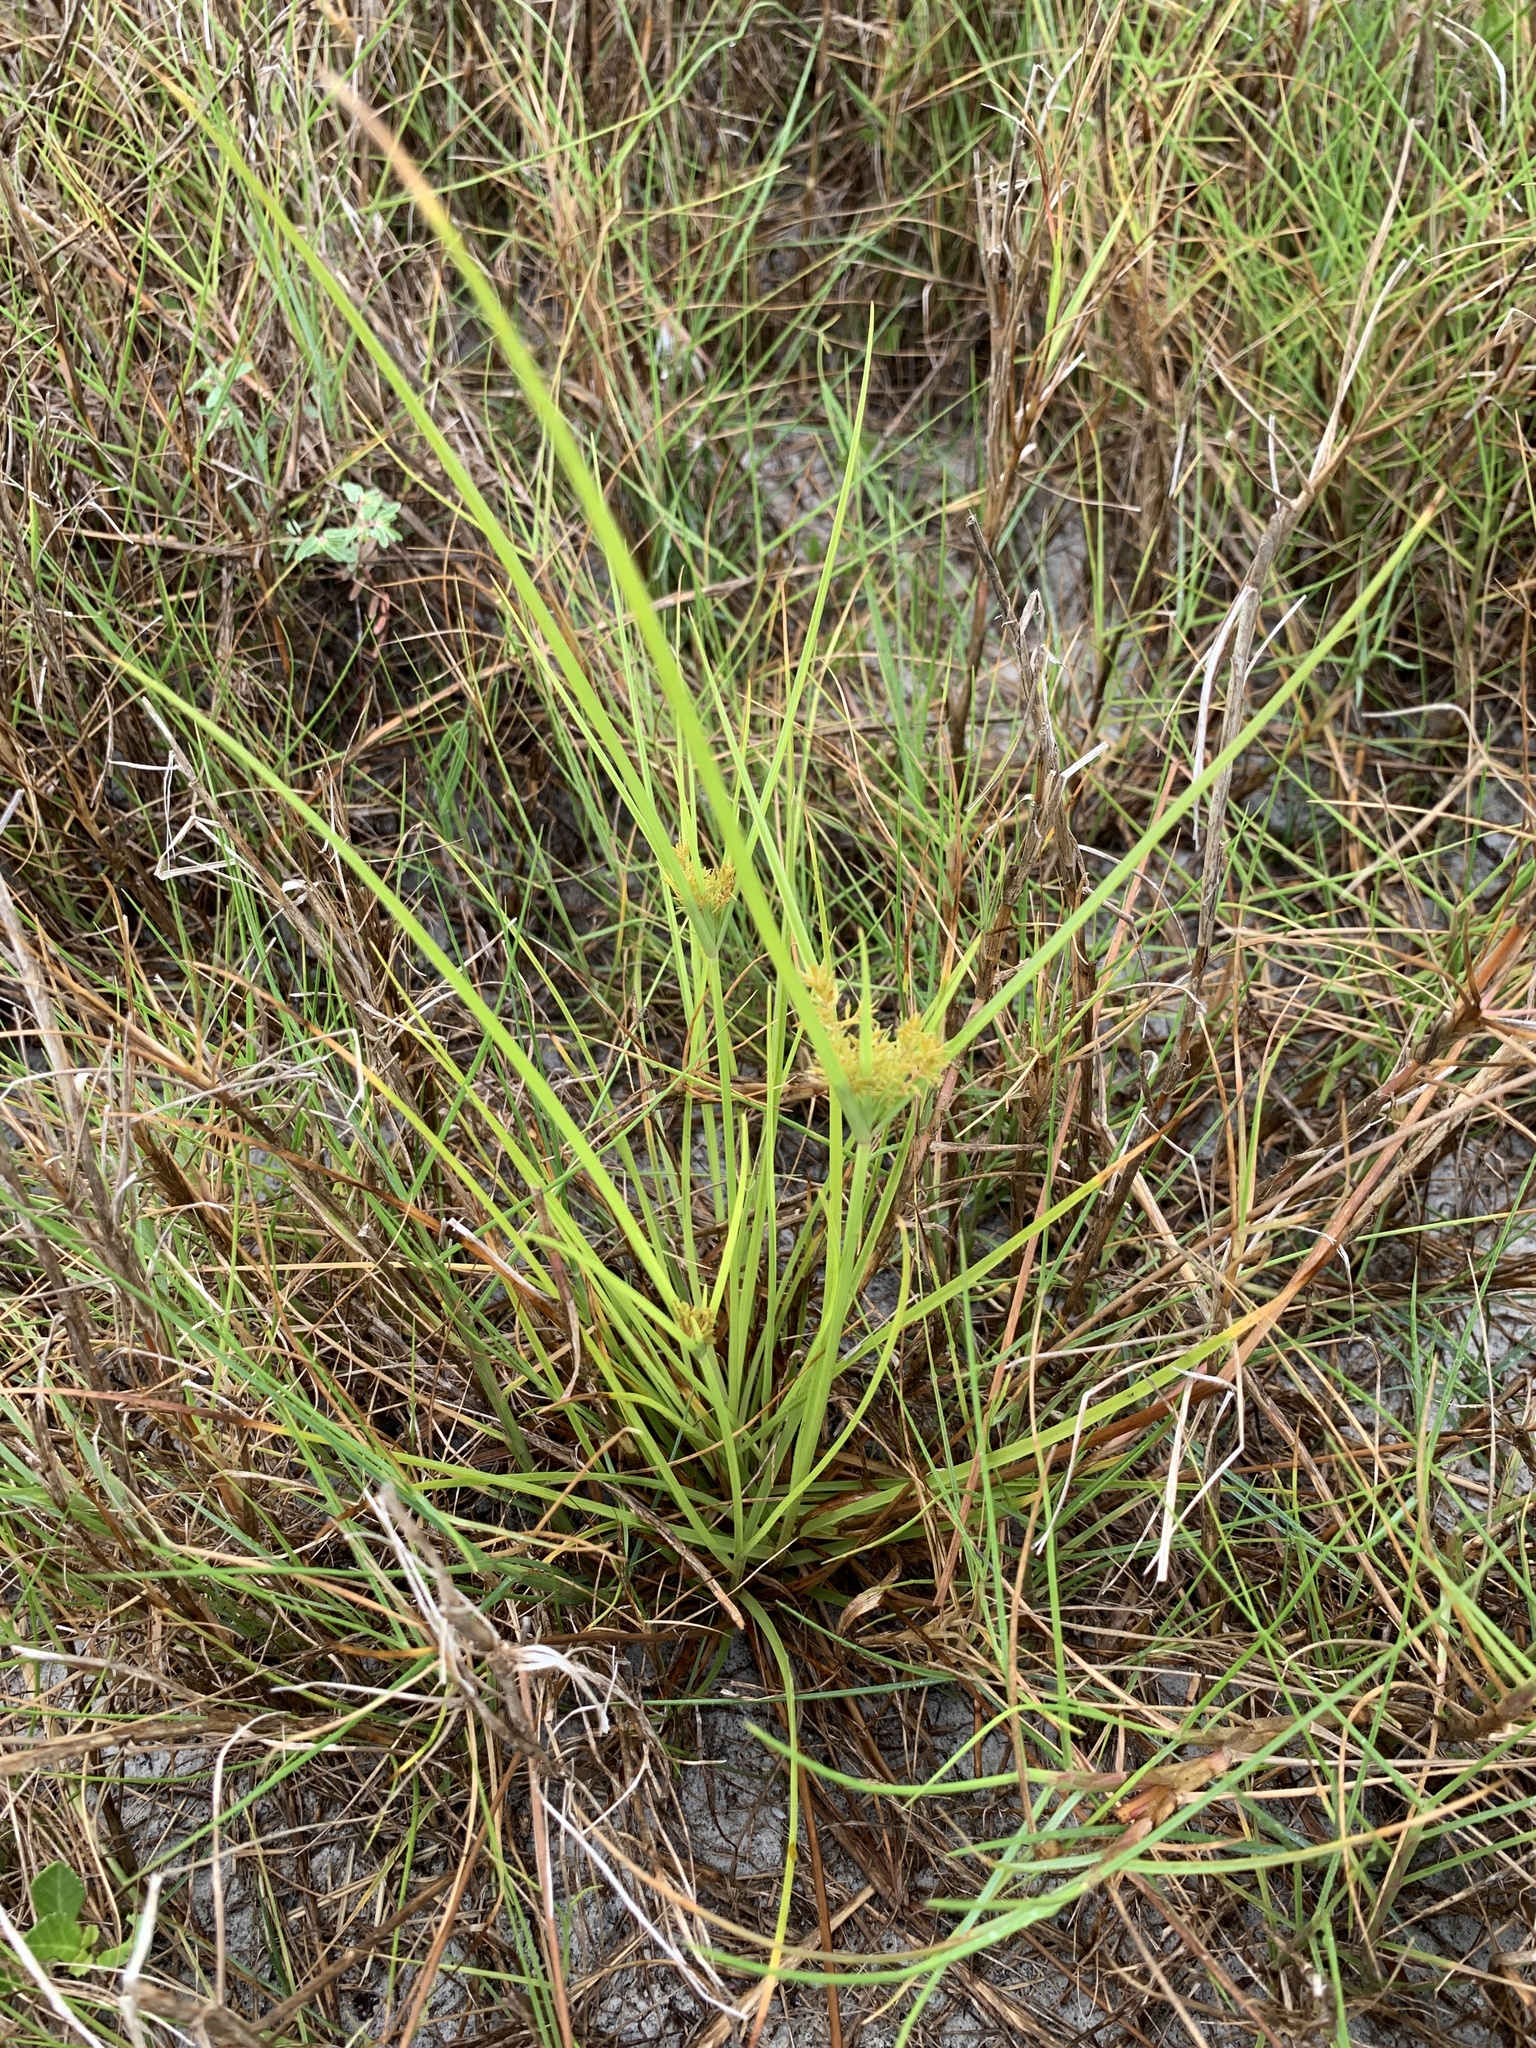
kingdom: Plantae
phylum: Tracheophyta
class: Liliopsida
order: Poales
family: Cyperaceae
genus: Cyperus
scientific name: Cyperus polystachyos
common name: Bunchy flat sedge
